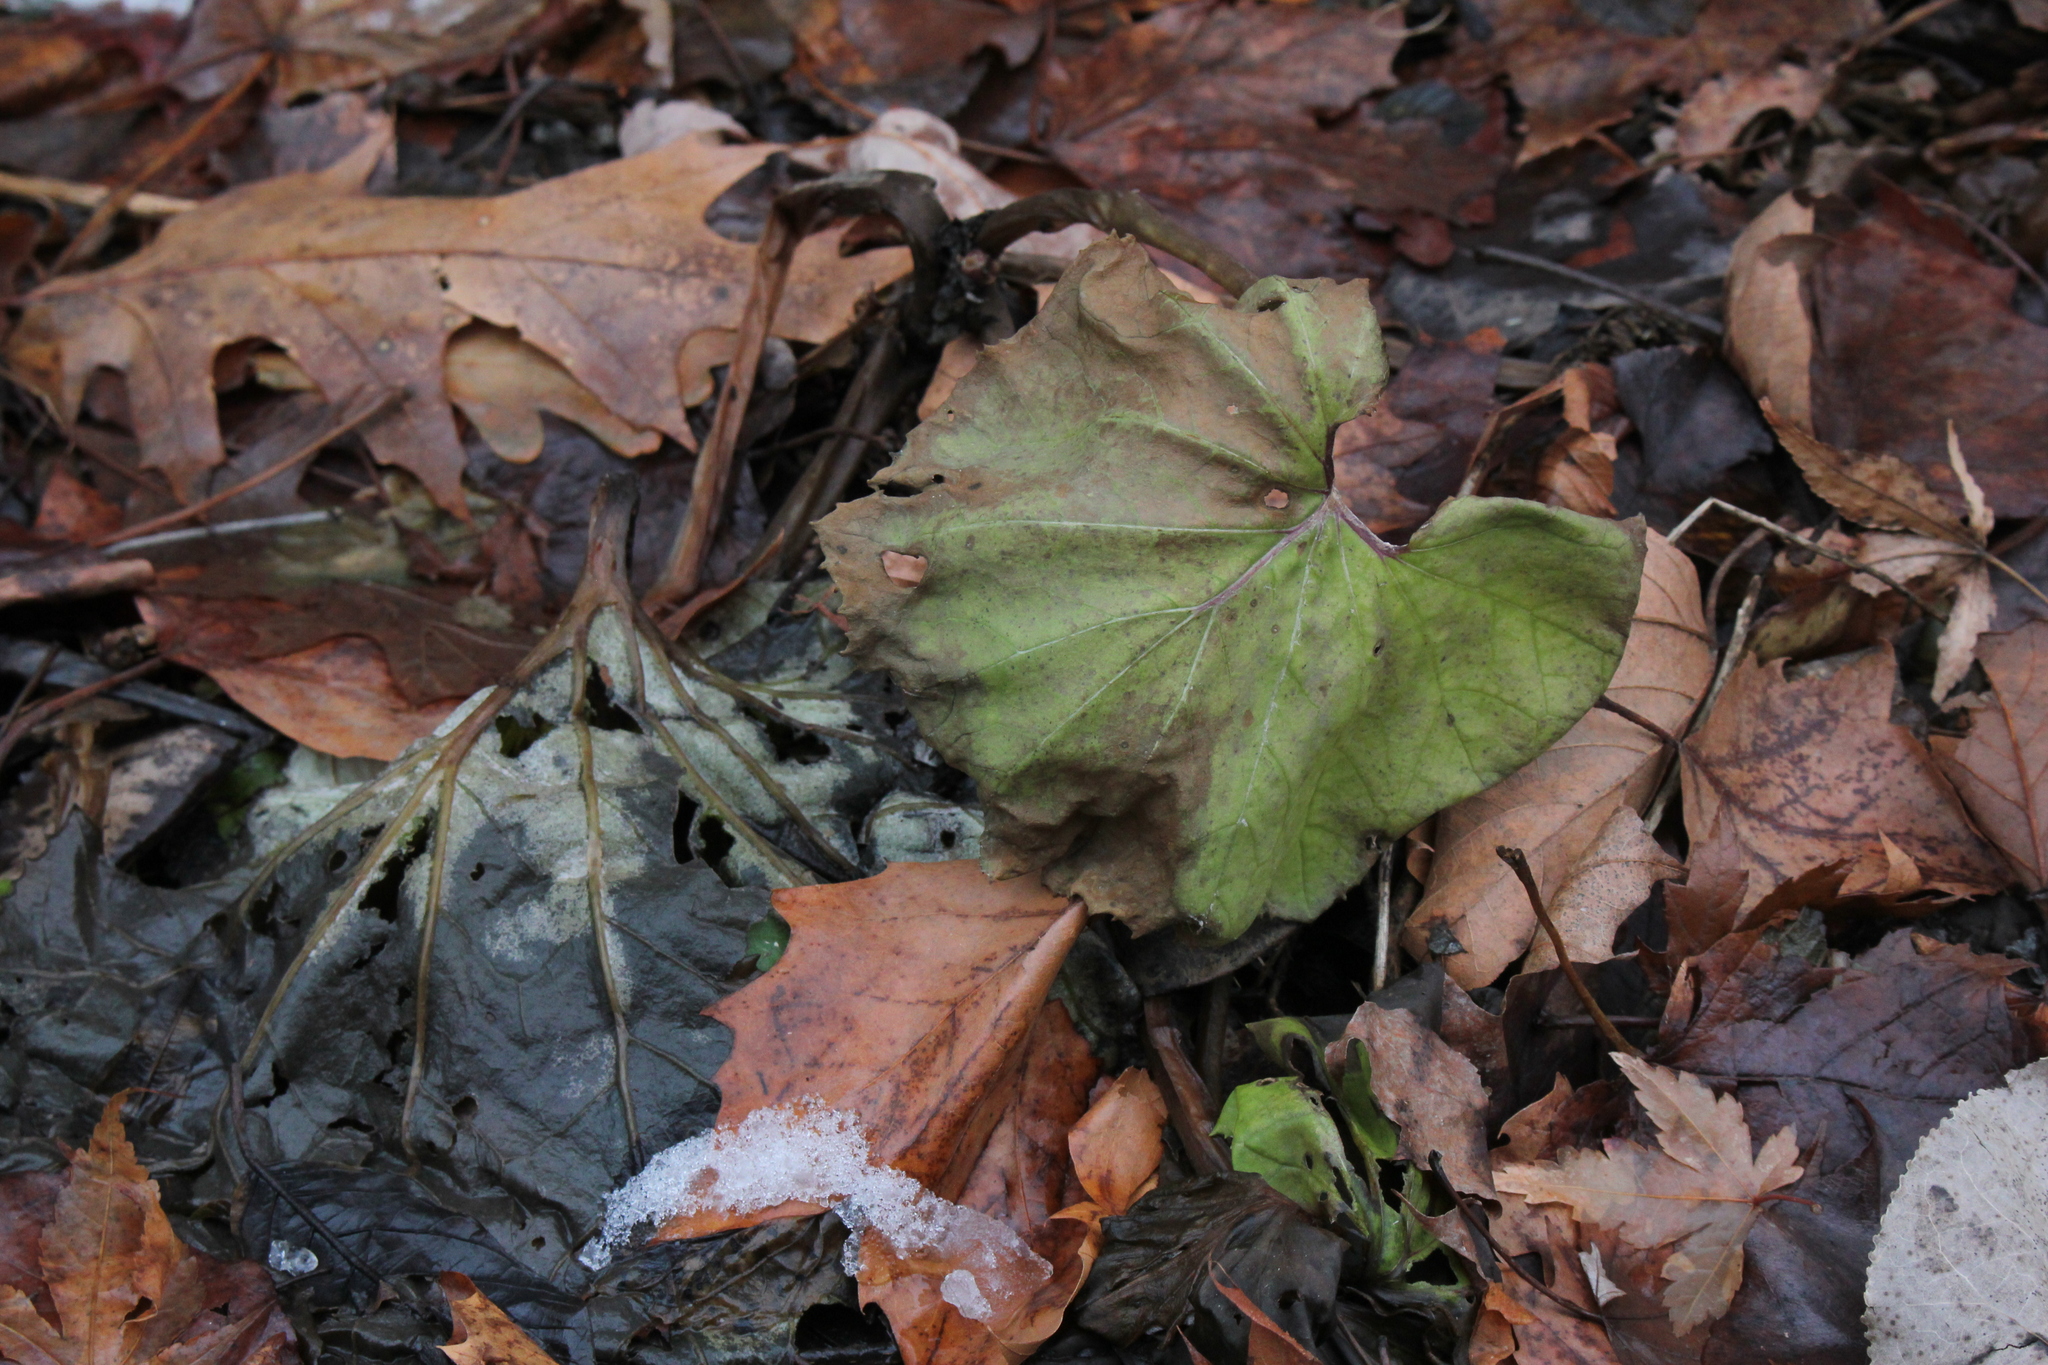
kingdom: Plantae
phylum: Tracheophyta
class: Magnoliopsida
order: Asterales
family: Asteraceae
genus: Tussilago
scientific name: Tussilago farfara
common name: Coltsfoot
